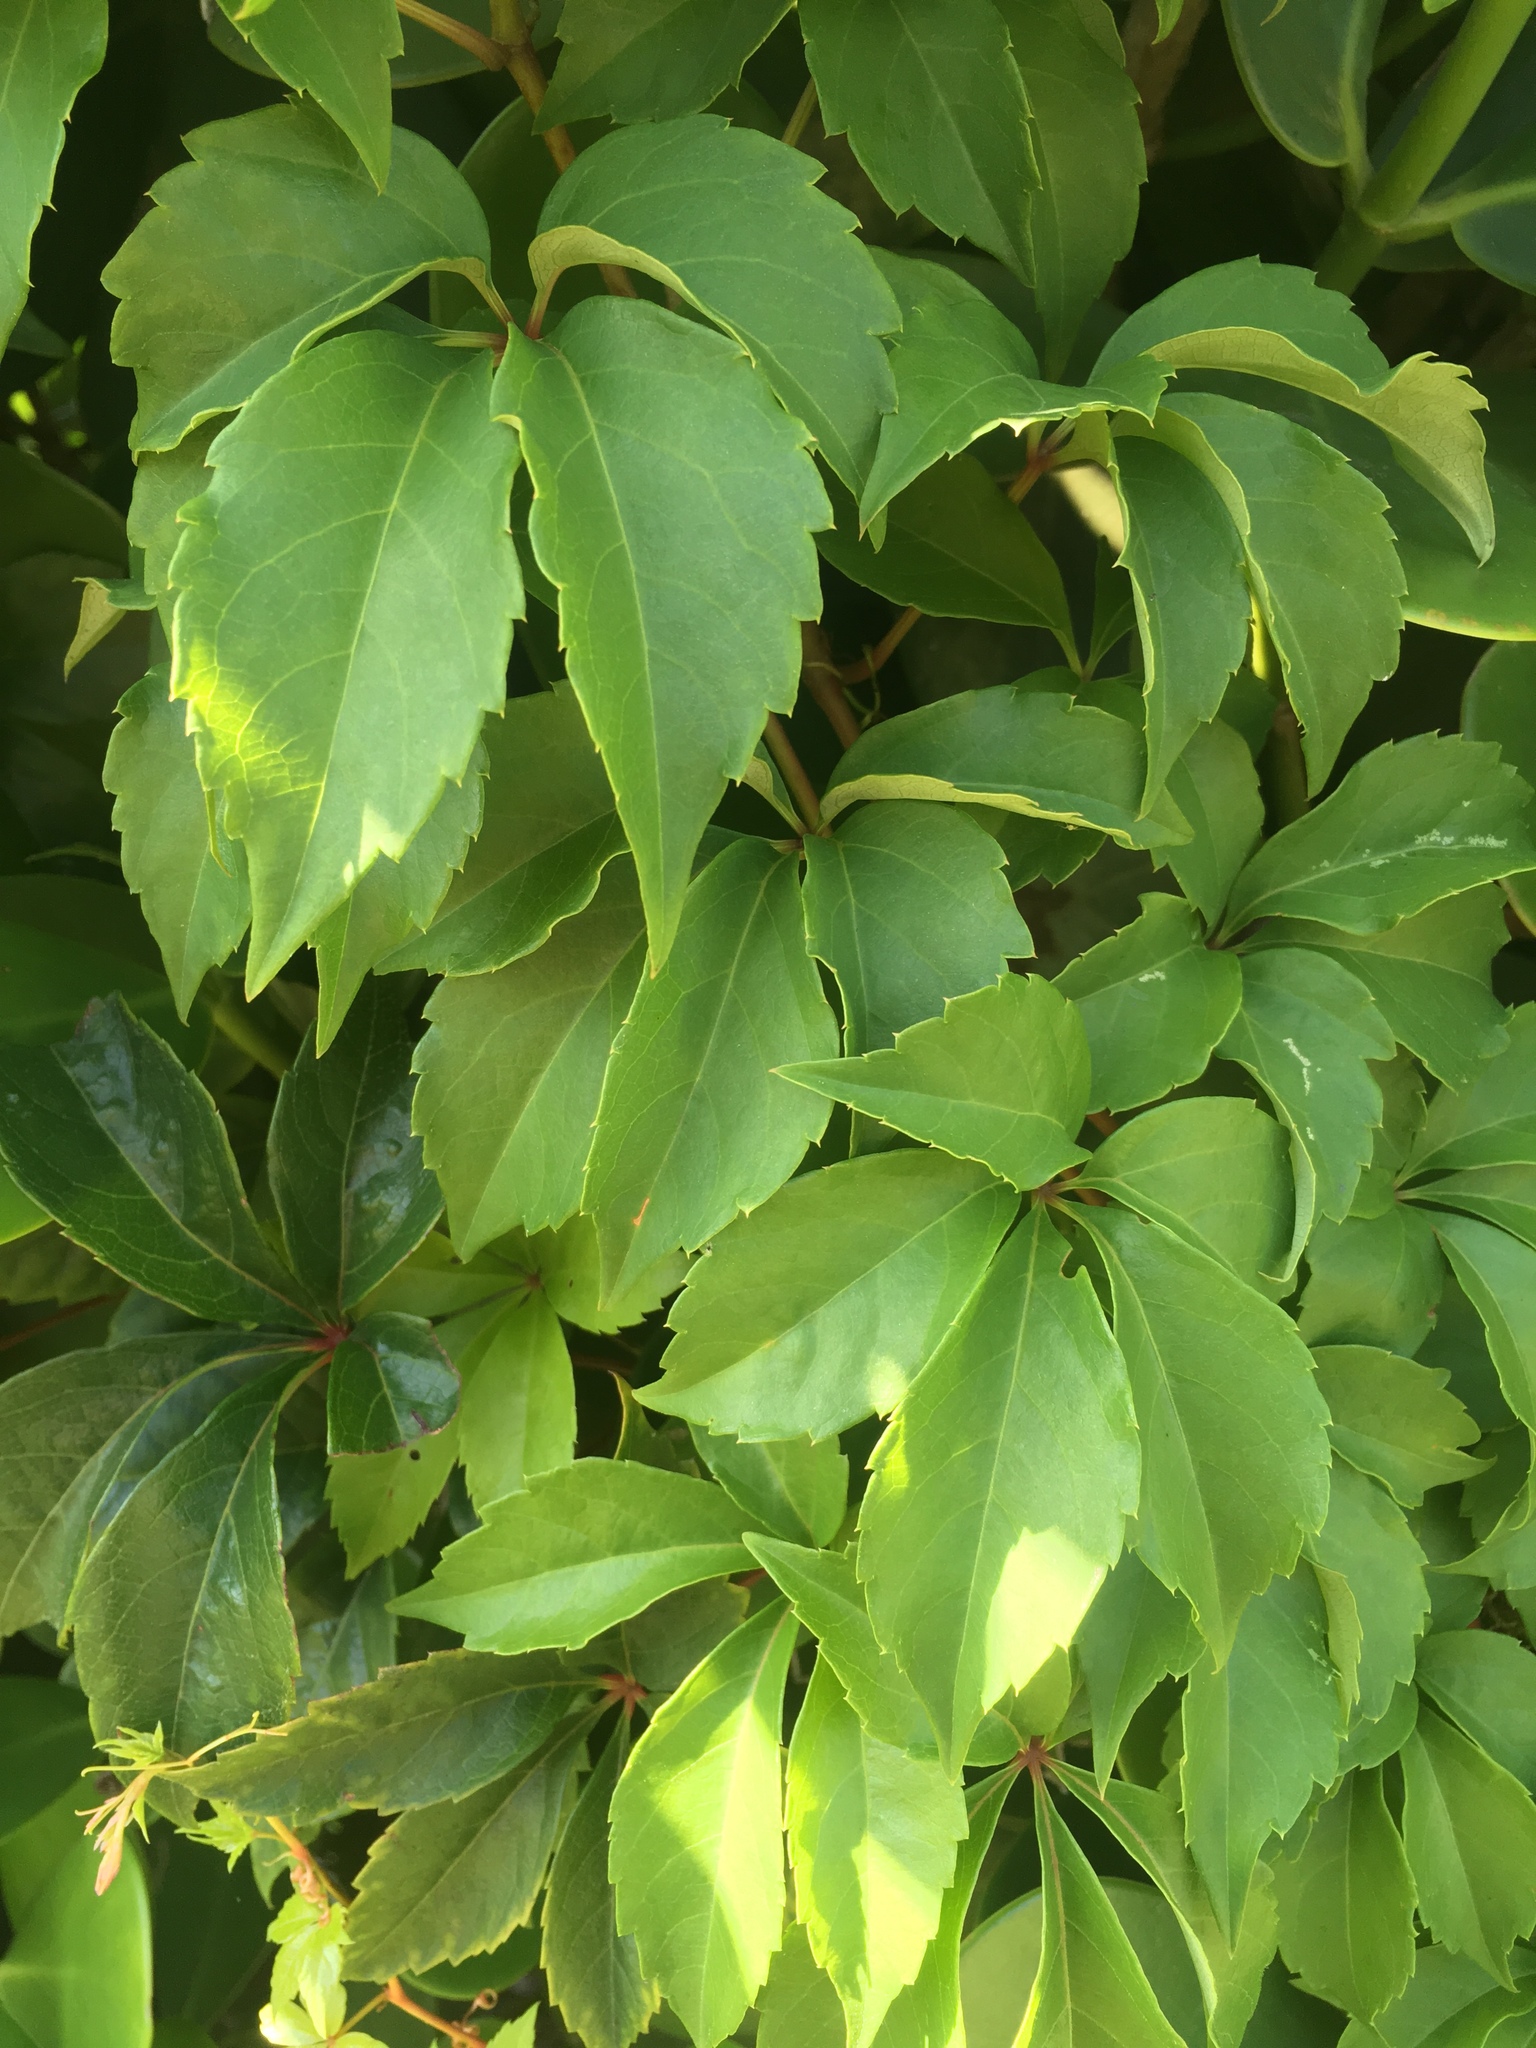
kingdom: Plantae
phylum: Tracheophyta
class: Magnoliopsida
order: Vitales
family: Vitaceae
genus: Parthenocissus
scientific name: Parthenocissus quinquefolia
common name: Virginia-creeper
